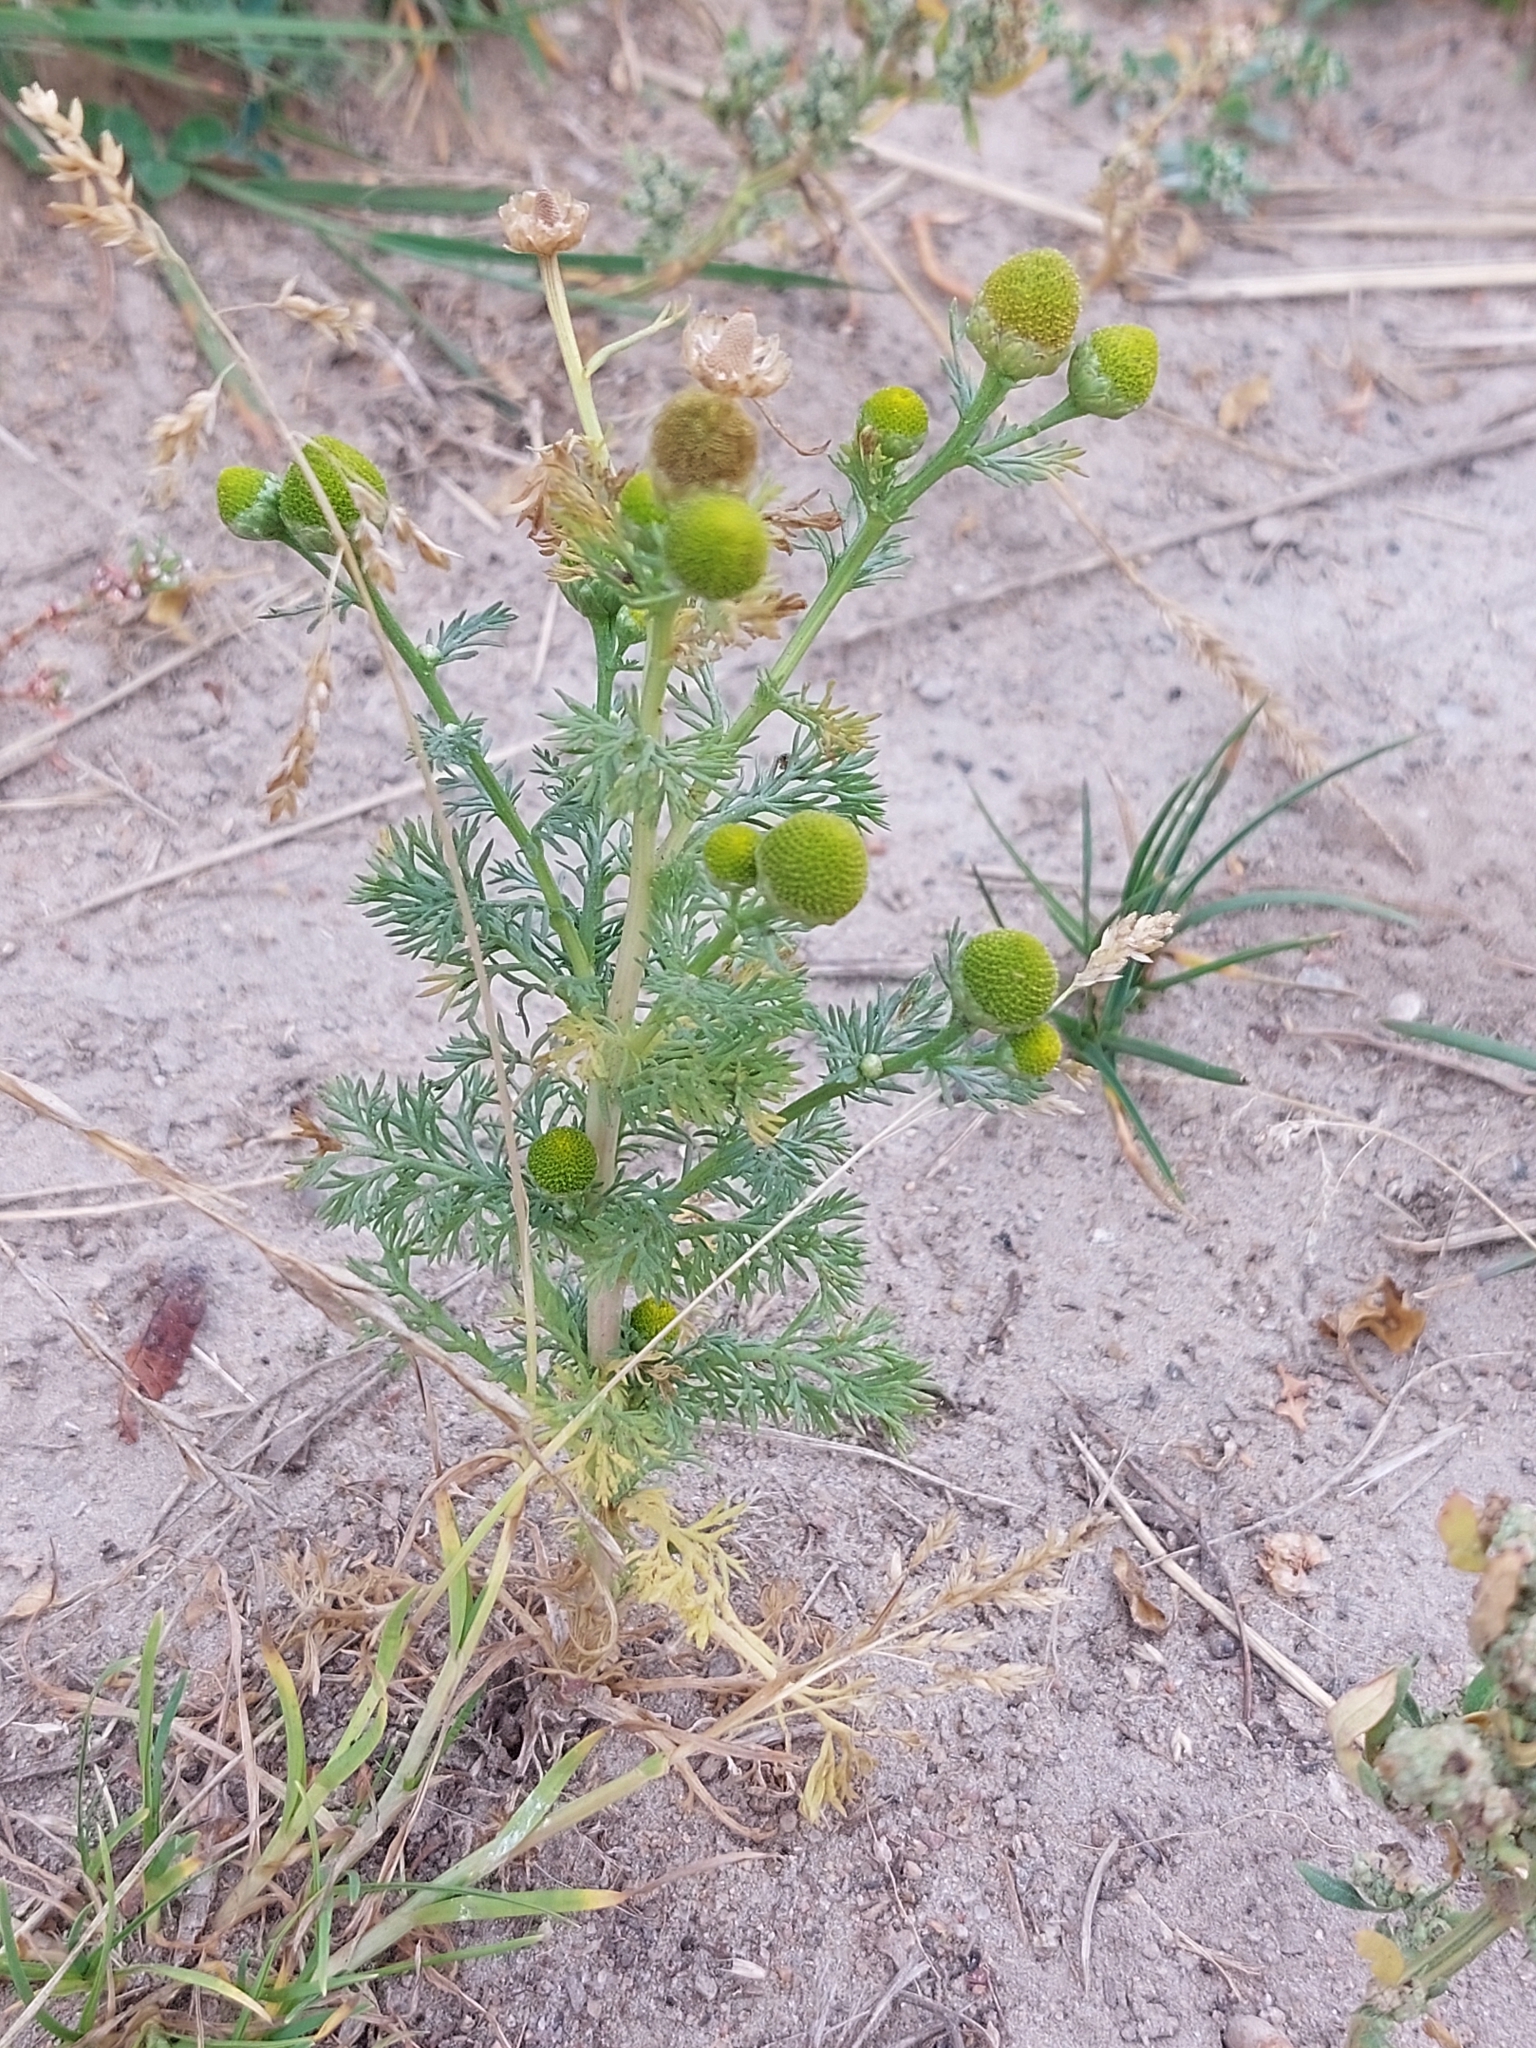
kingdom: Plantae
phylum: Tracheophyta
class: Magnoliopsida
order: Asterales
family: Asteraceae
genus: Matricaria
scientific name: Matricaria discoidea
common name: Disc mayweed
